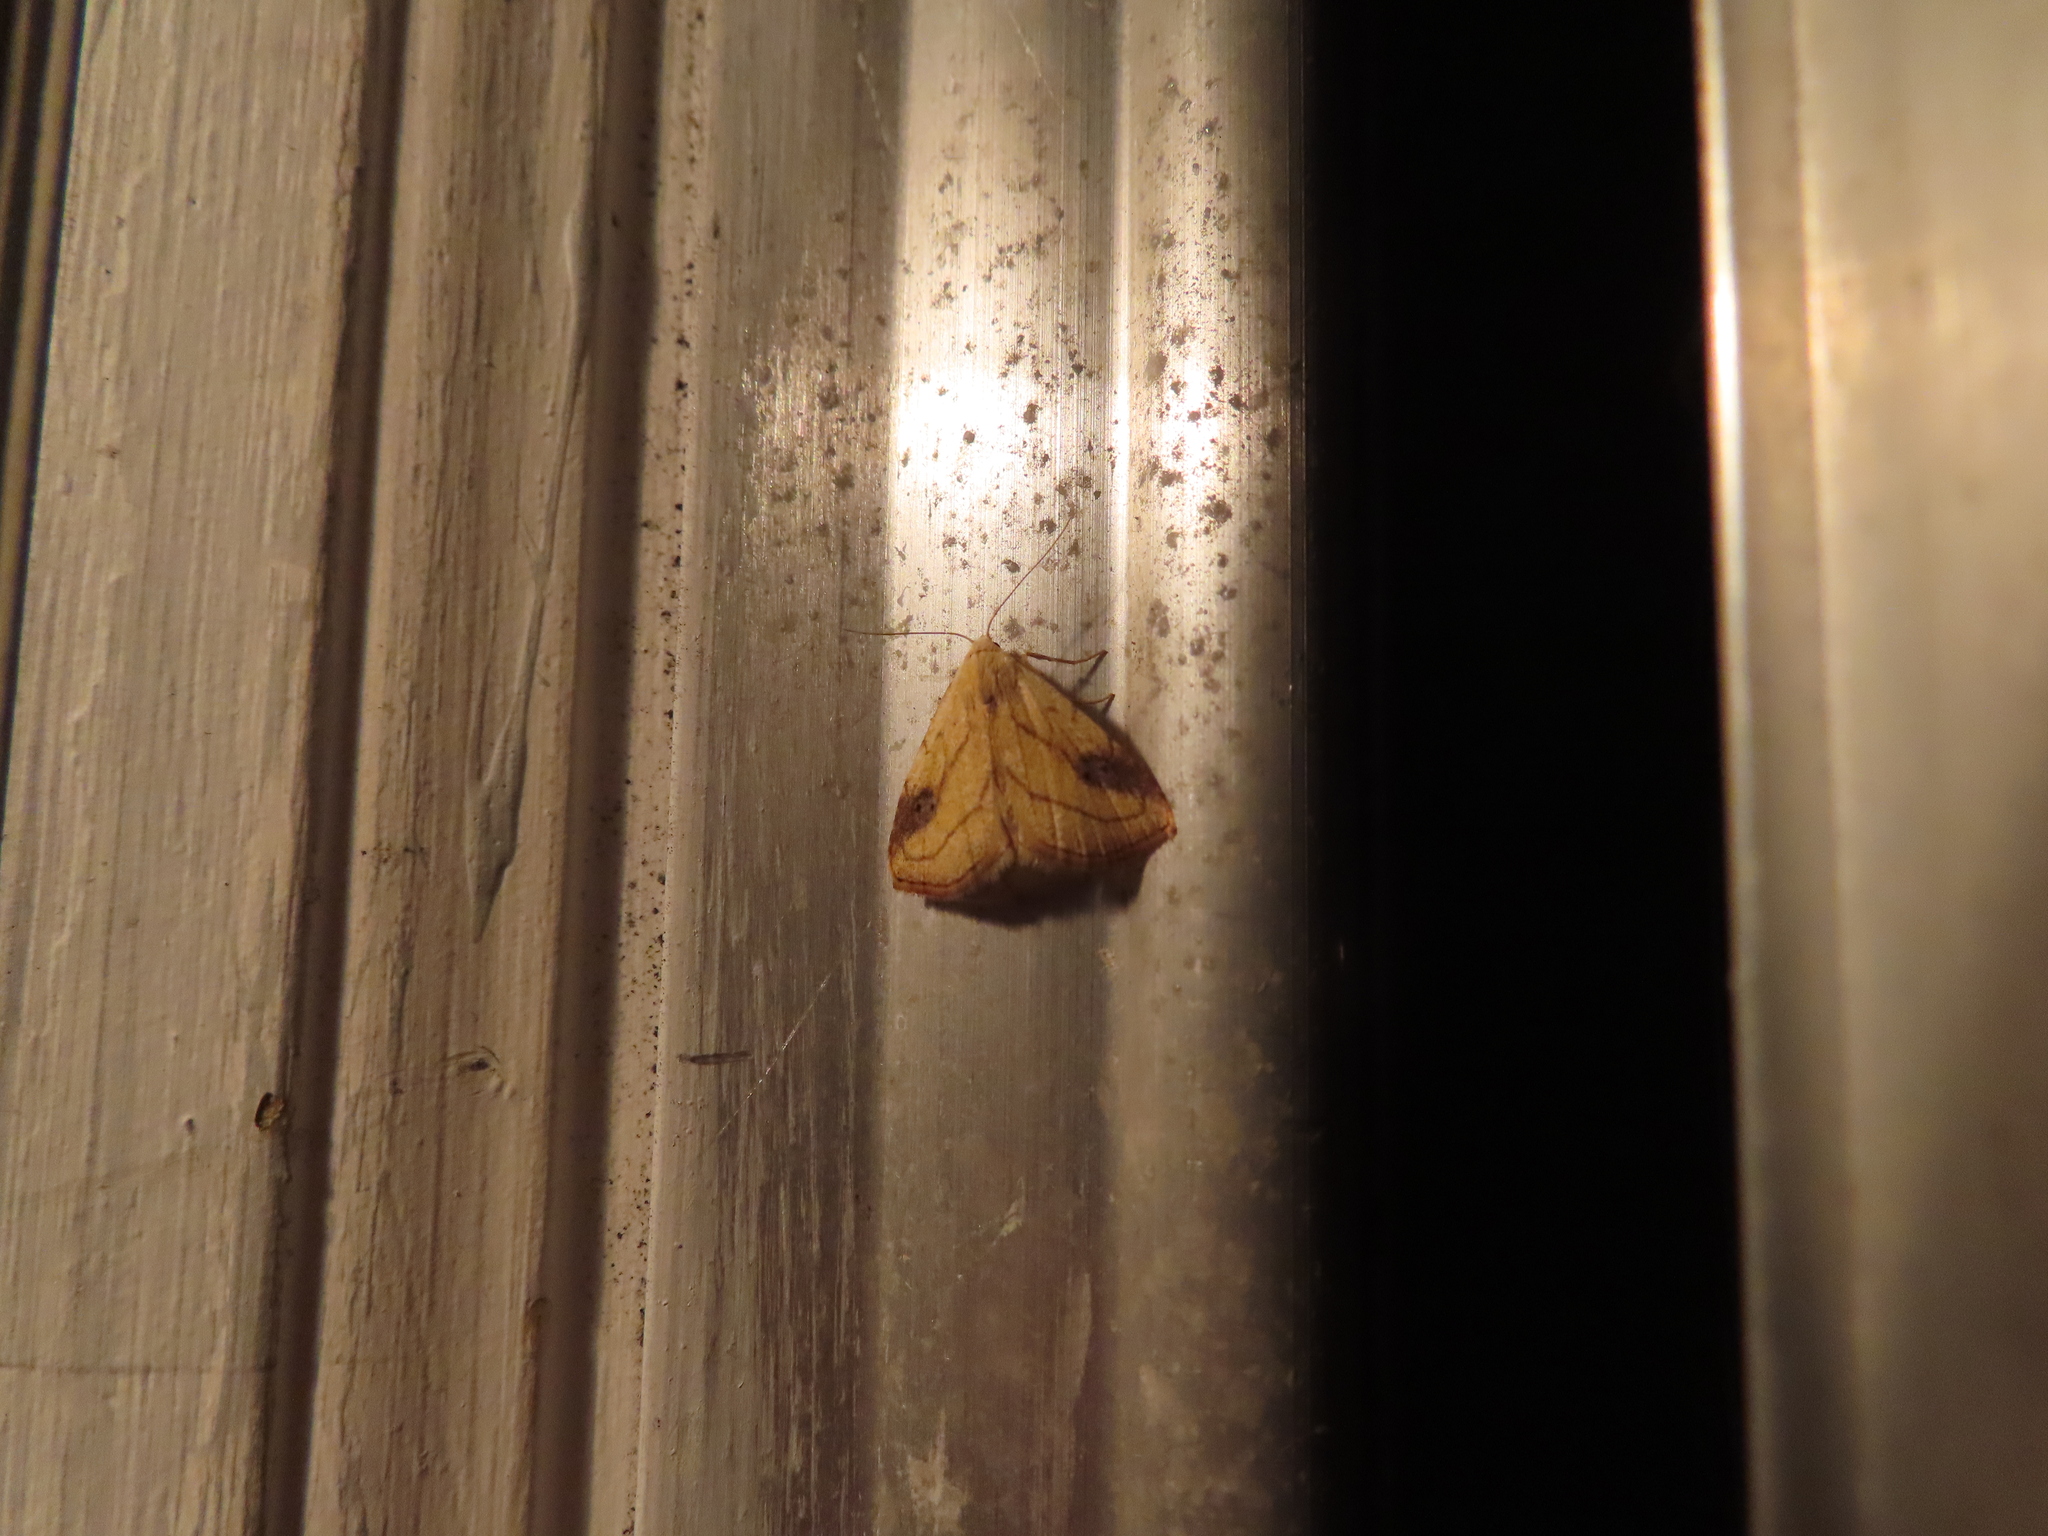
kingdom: Animalia
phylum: Arthropoda
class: Insecta
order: Lepidoptera
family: Erebidae
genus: Rivula
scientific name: Rivula propinqualis
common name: Spotted grass moth
